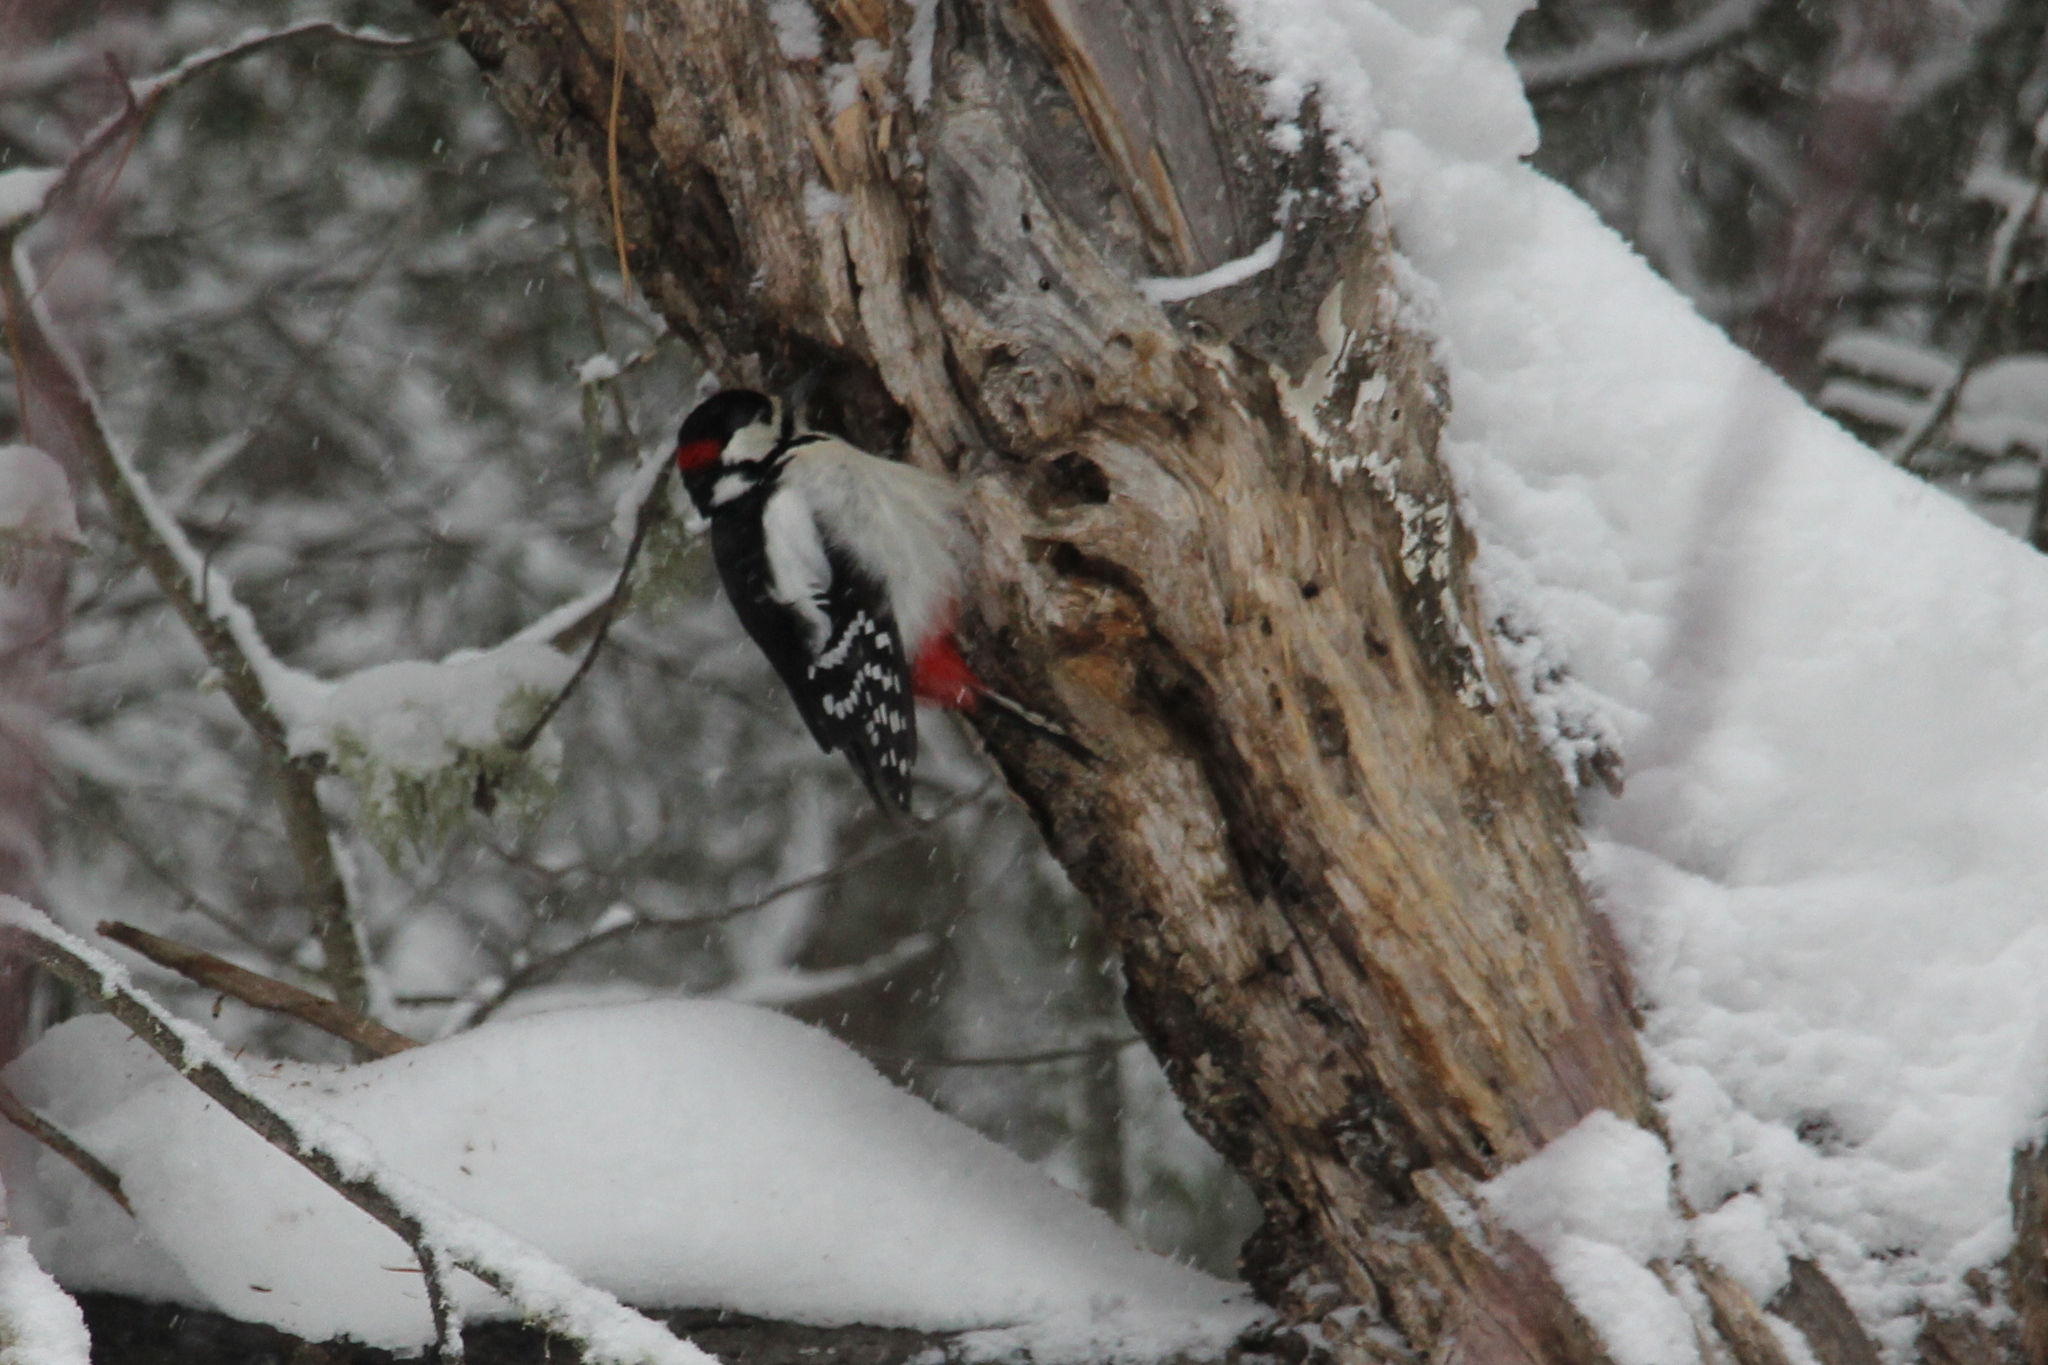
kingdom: Animalia
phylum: Chordata
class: Aves
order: Piciformes
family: Picidae
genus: Dendrocopos
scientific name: Dendrocopos major
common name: Great spotted woodpecker
